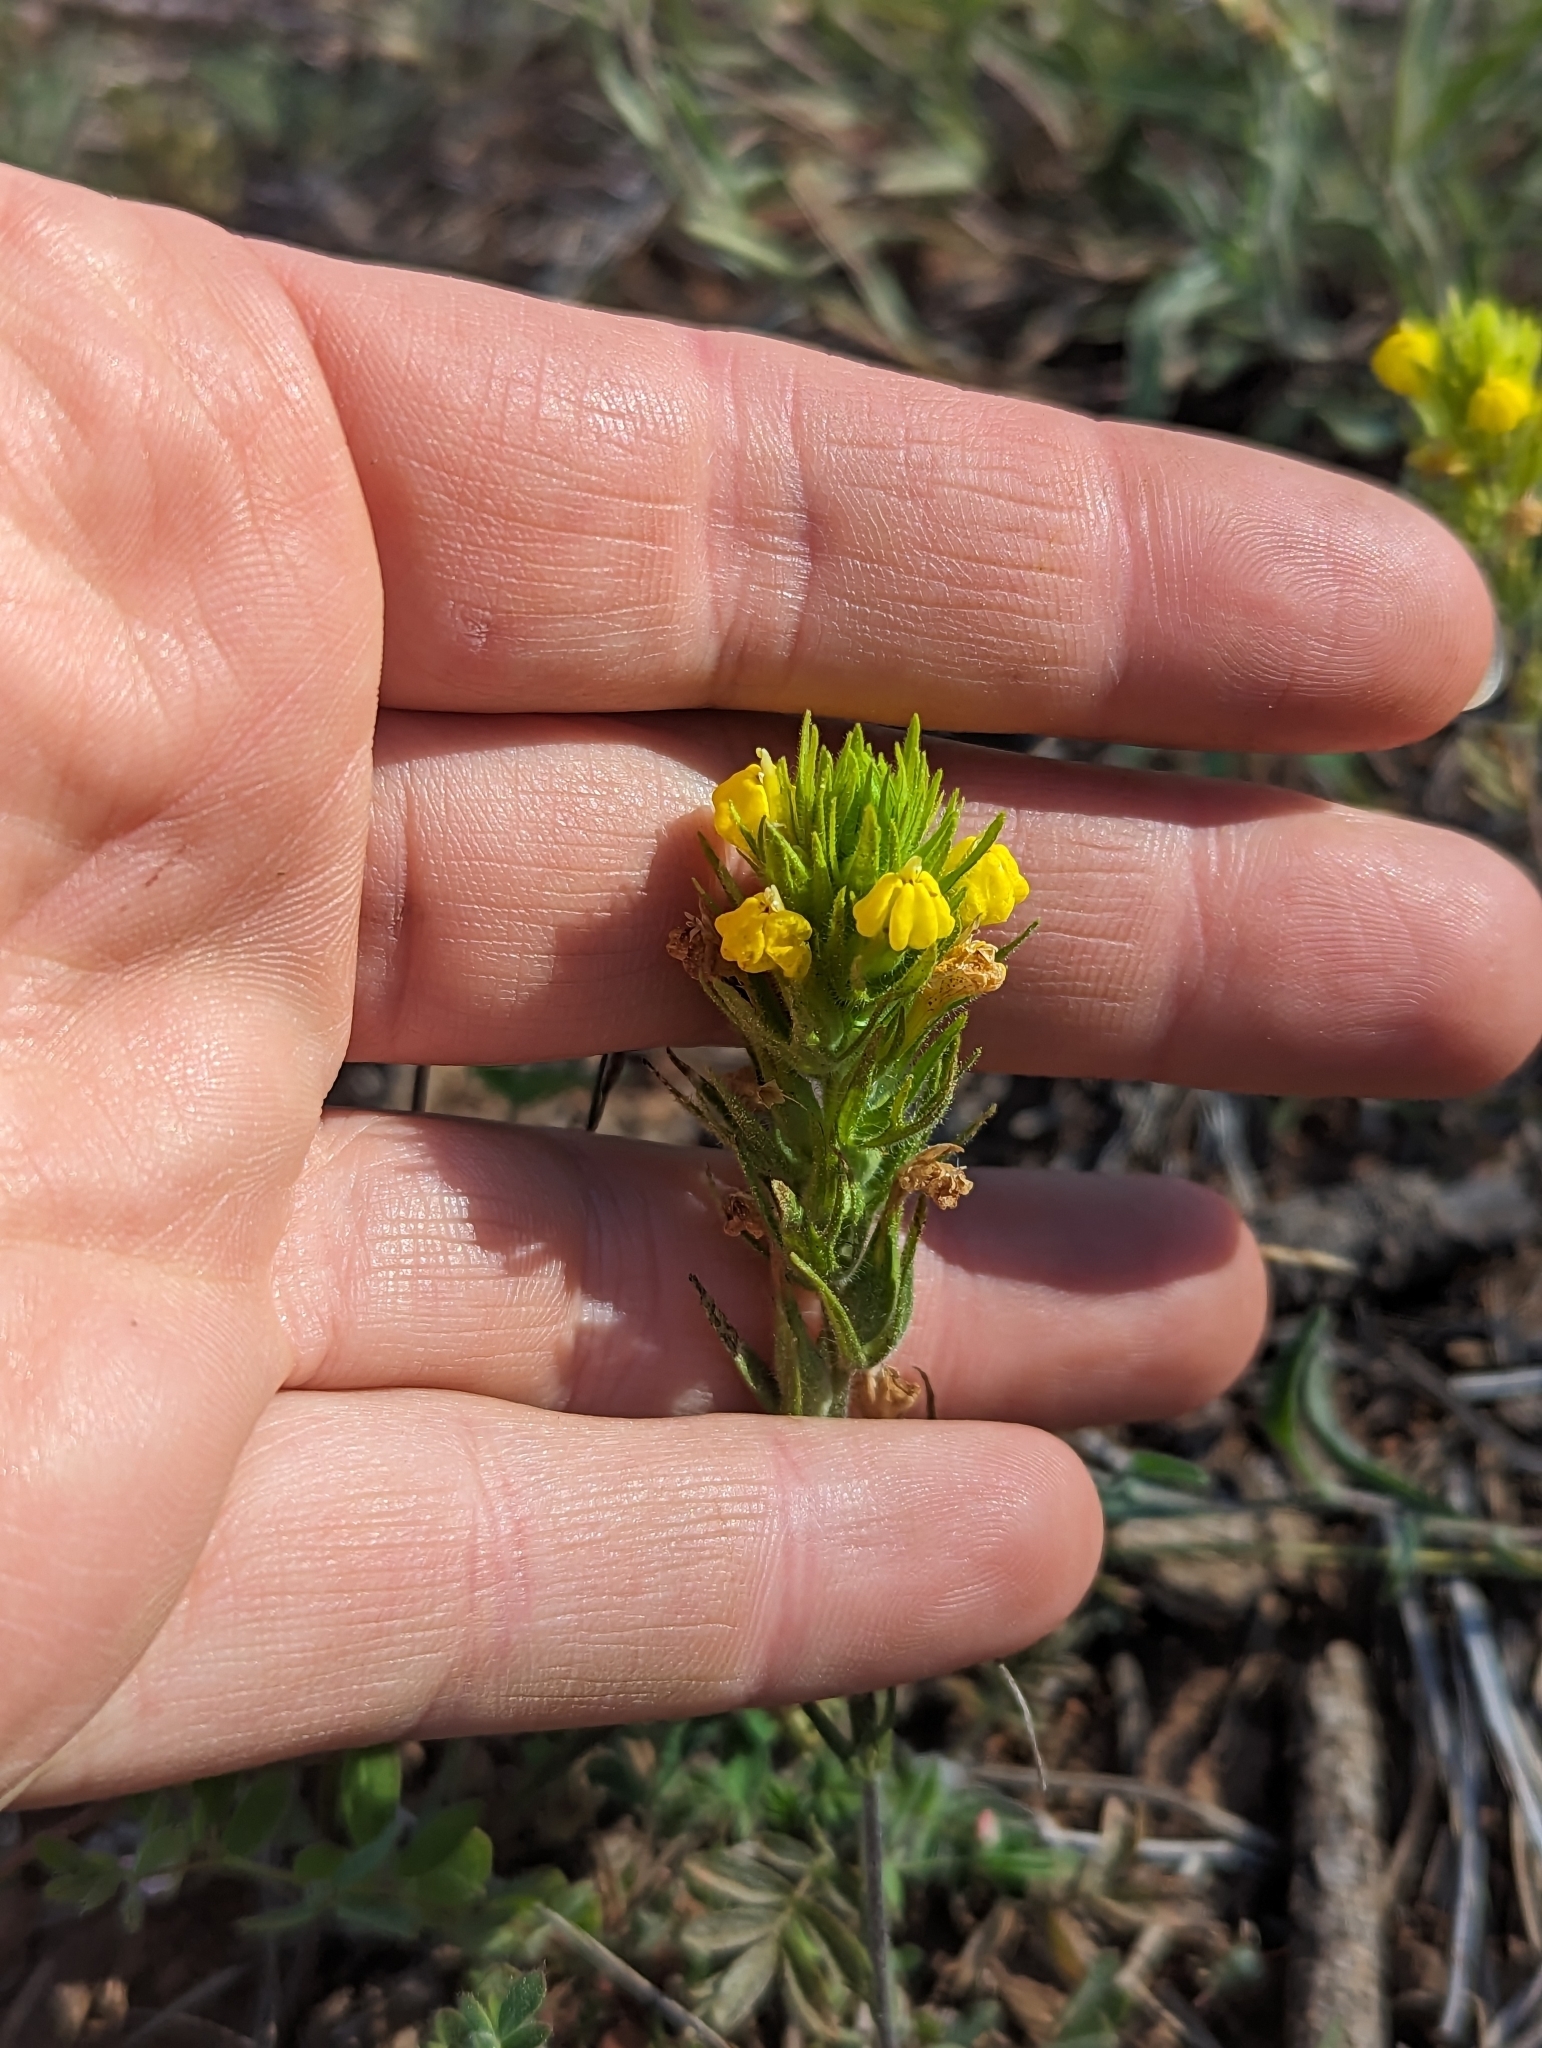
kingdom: Plantae
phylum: Tracheophyta
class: Magnoliopsida
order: Lamiales
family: Orobanchaceae
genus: Castilleja
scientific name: Castilleja lacera
